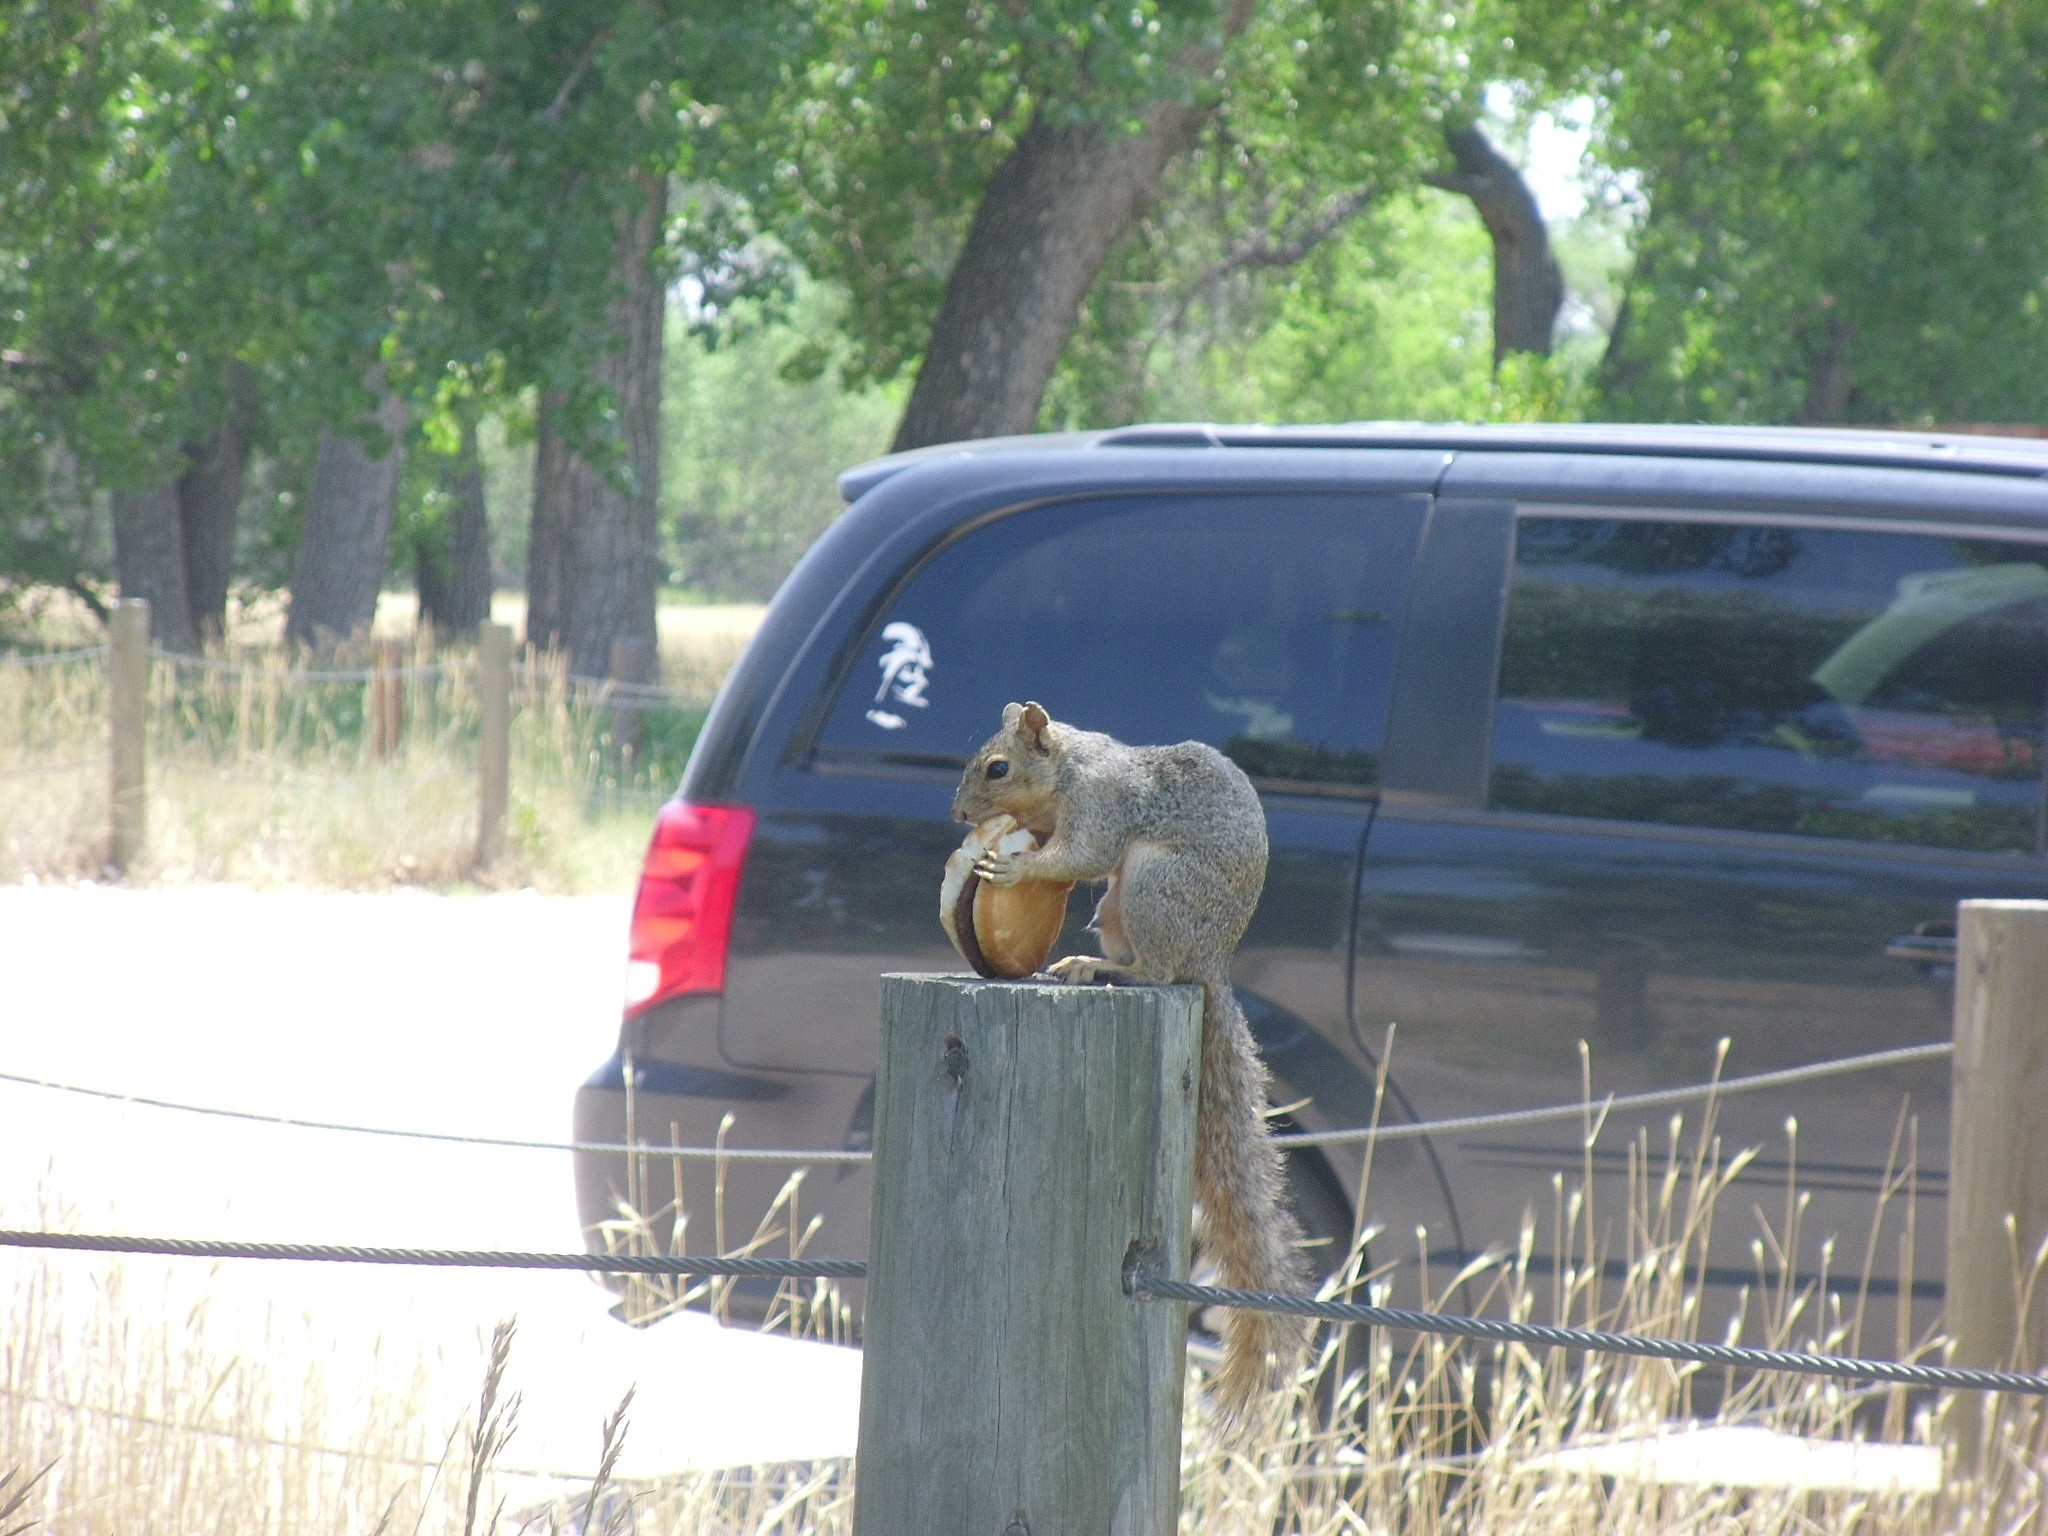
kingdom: Animalia
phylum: Chordata
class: Mammalia
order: Rodentia
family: Sciuridae
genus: Sciurus
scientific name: Sciurus niger
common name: Fox squirrel
